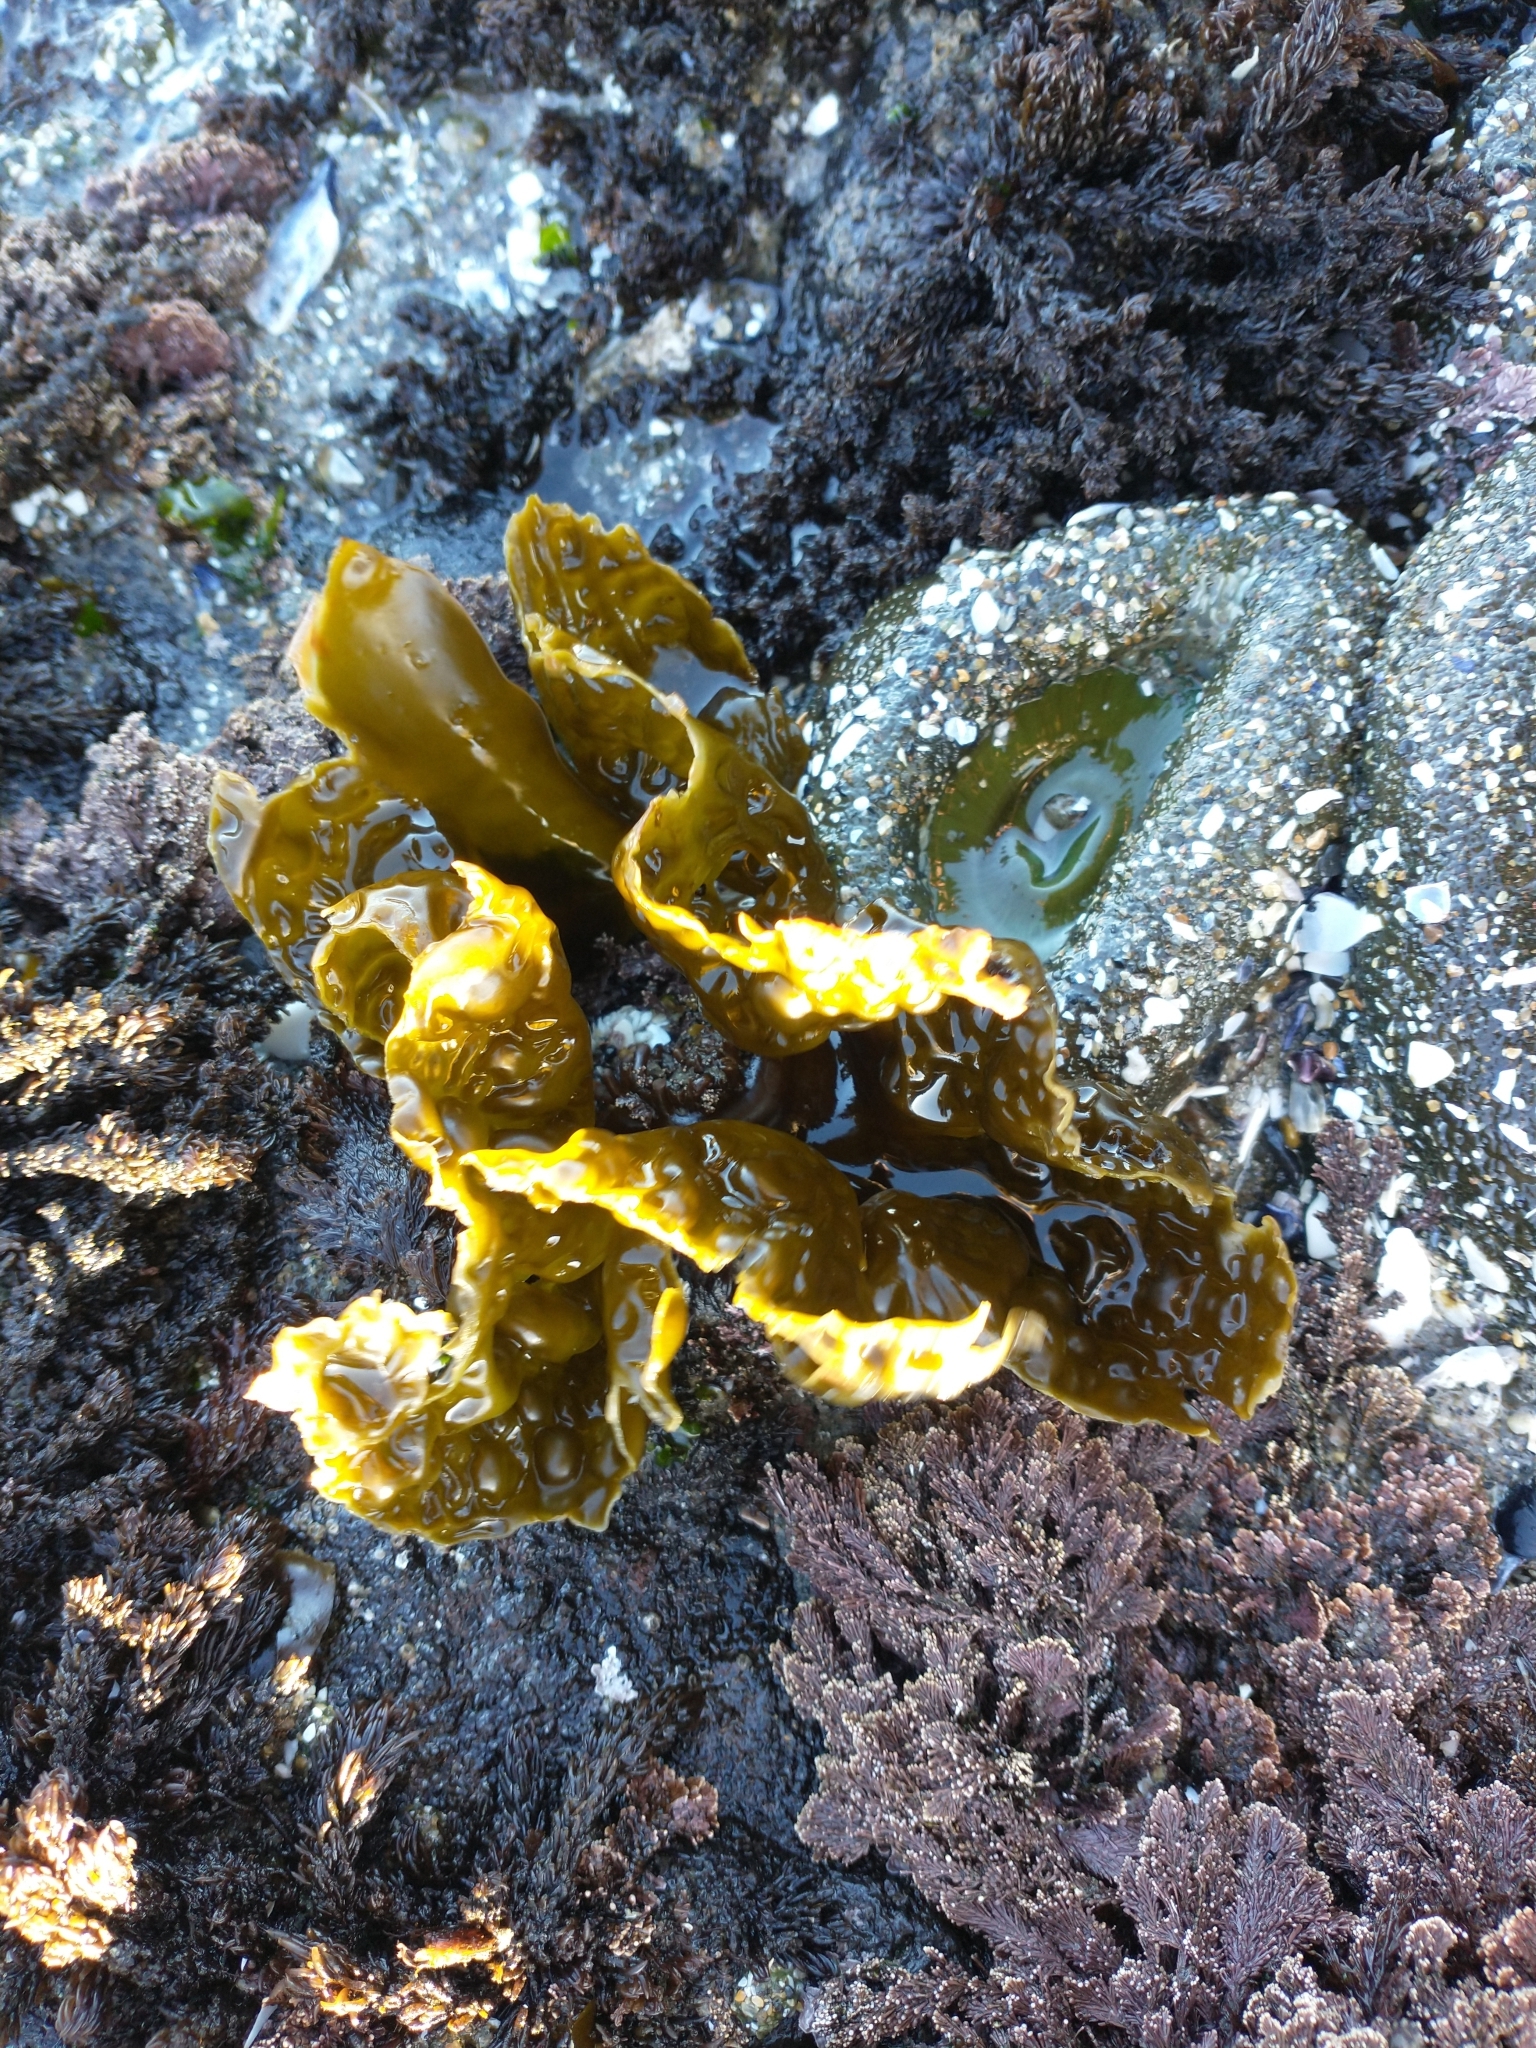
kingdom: Chromista
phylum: Ochrophyta
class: Phaeophyceae
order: Laminariales
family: Laminariaceae
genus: Hedophyllum
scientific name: Hedophyllum sessile
